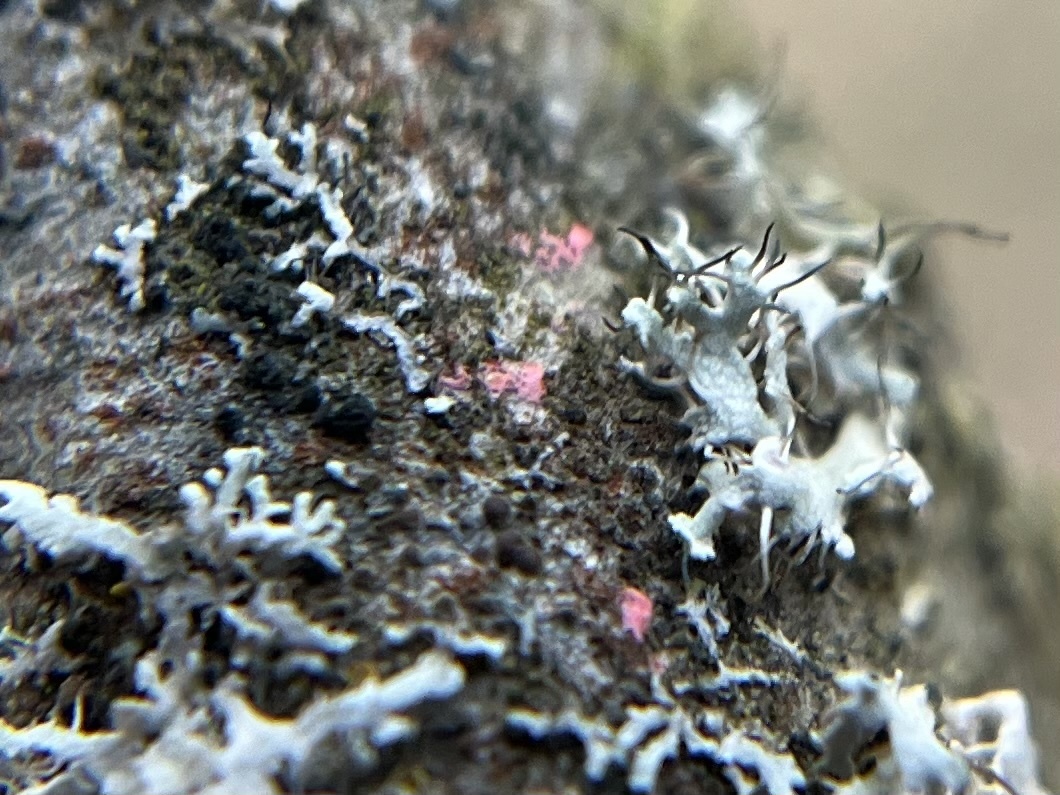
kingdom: Fungi
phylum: Ascomycota
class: Sordariomycetes
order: Hypocreales
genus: Illosporiopsis
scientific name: Illosporiopsis christiansenii
